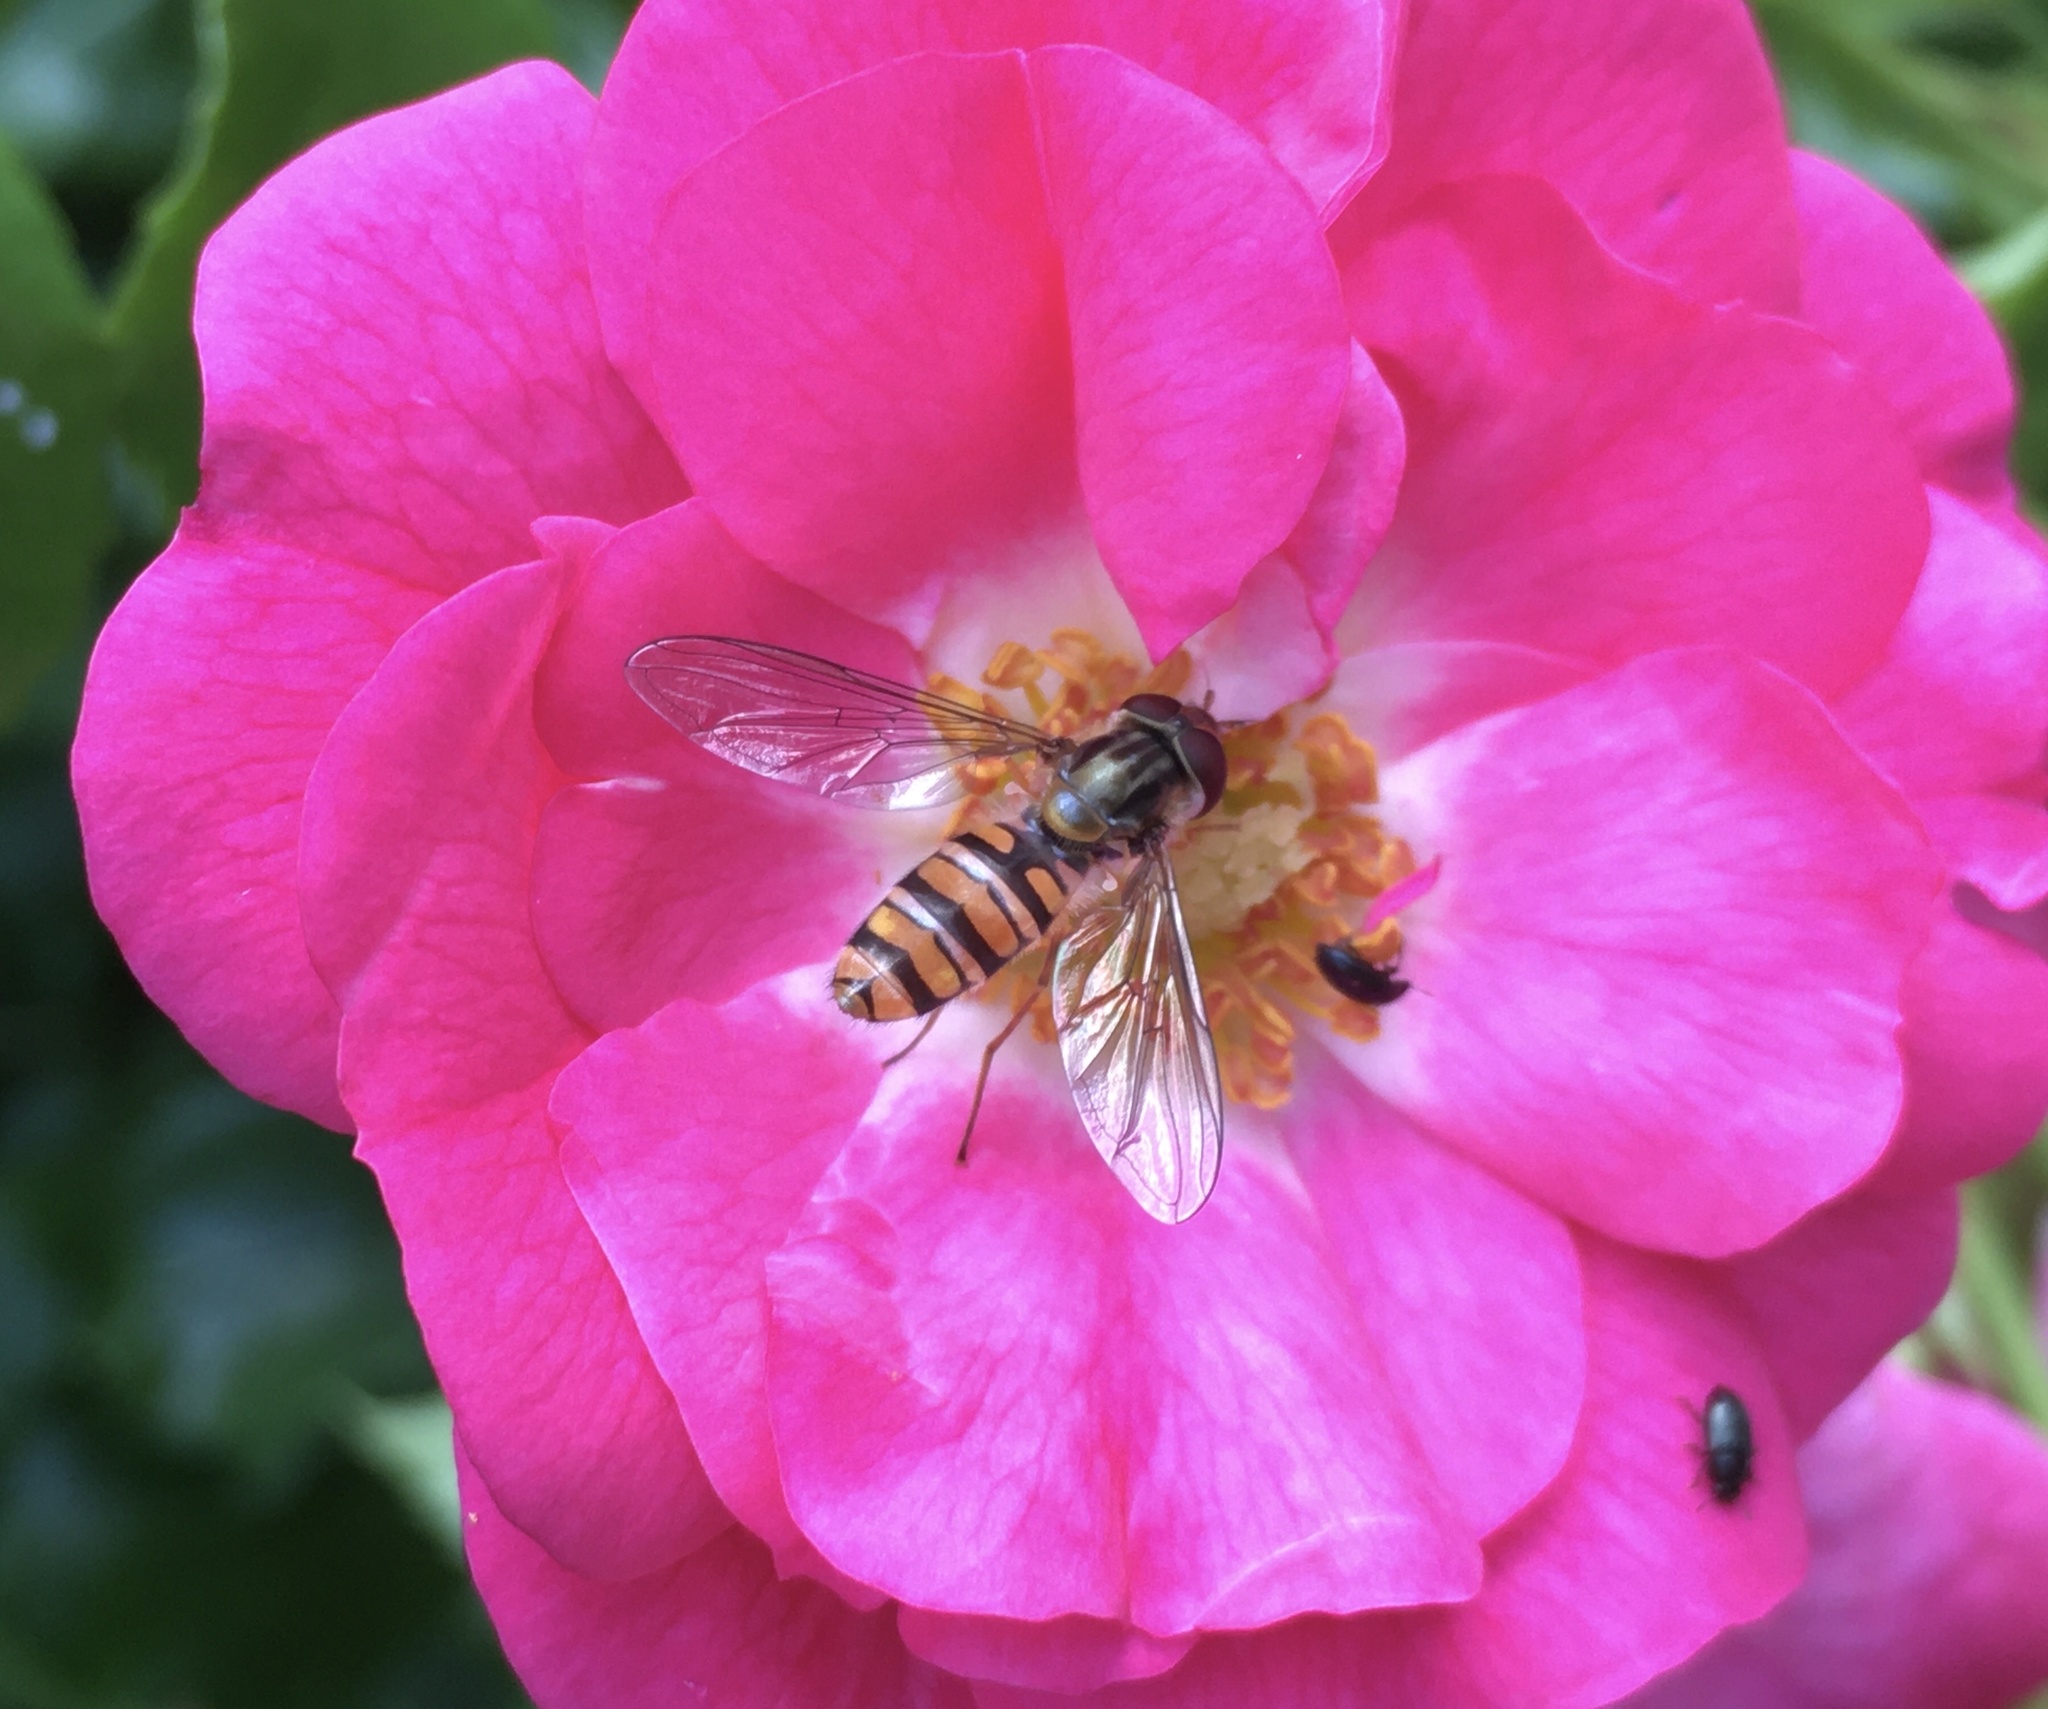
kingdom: Animalia
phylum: Arthropoda
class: Insecta
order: Diptera
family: Syrphidae
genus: Episyrphus
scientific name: Episyrphus balteatus
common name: Marmalade hoverfly
